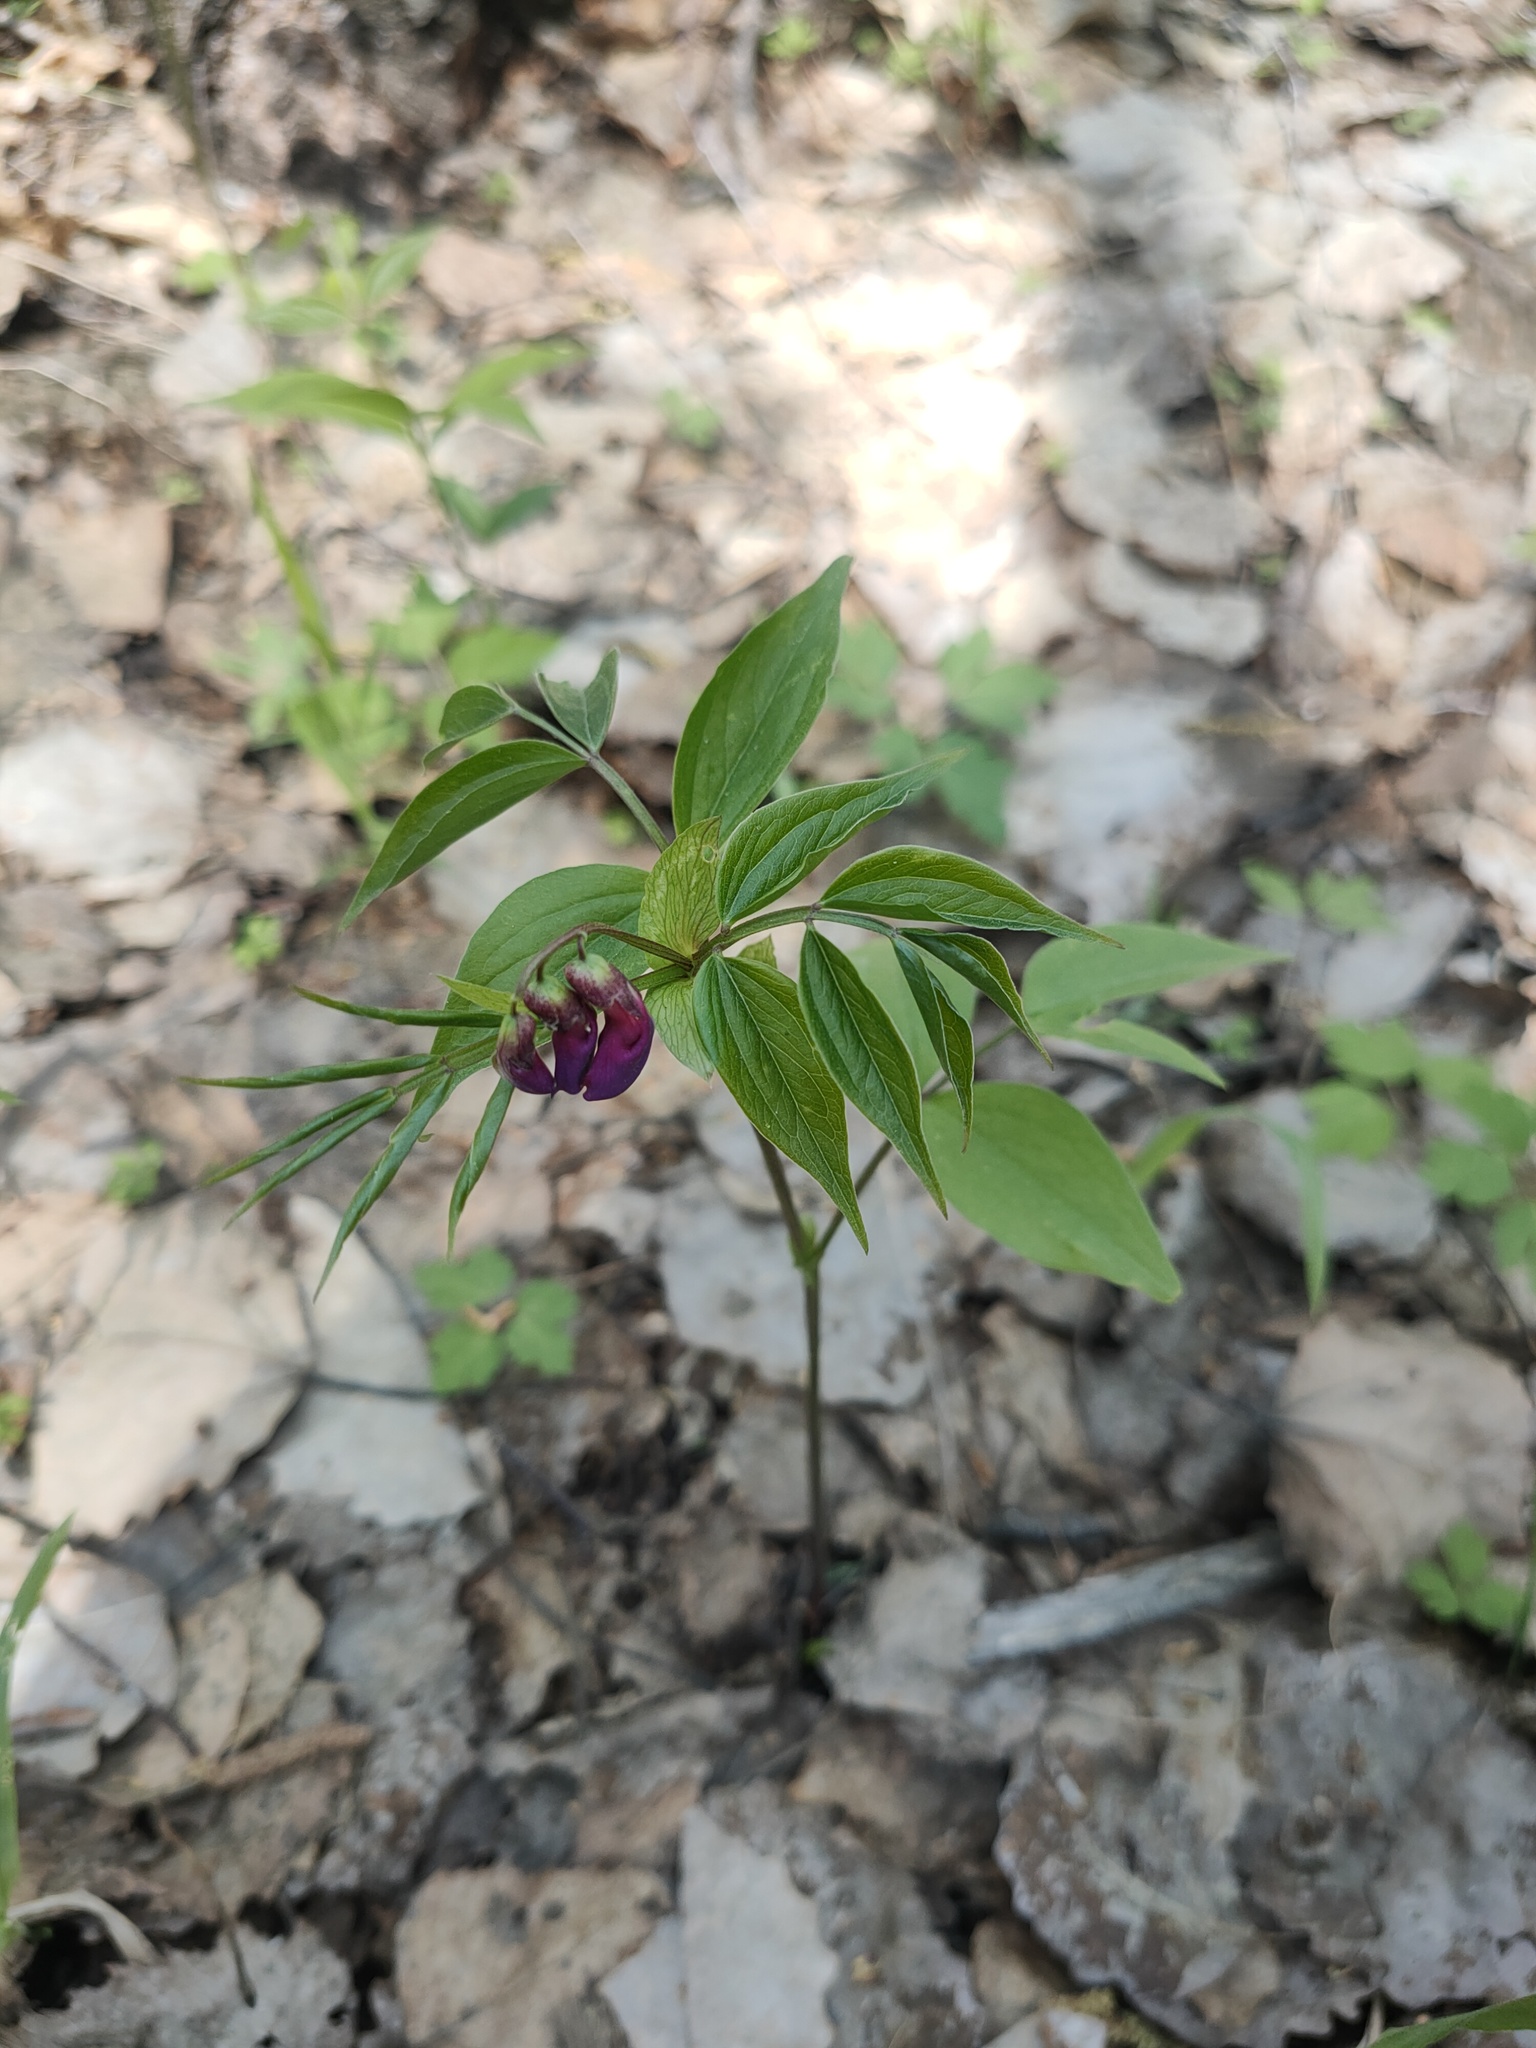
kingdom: Plantae
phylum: Tracheophyta
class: Magnoliopsida
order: Fabales
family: Fabaceae
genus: Lathyrus
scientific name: Lathyrus vernus
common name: Spring pea
